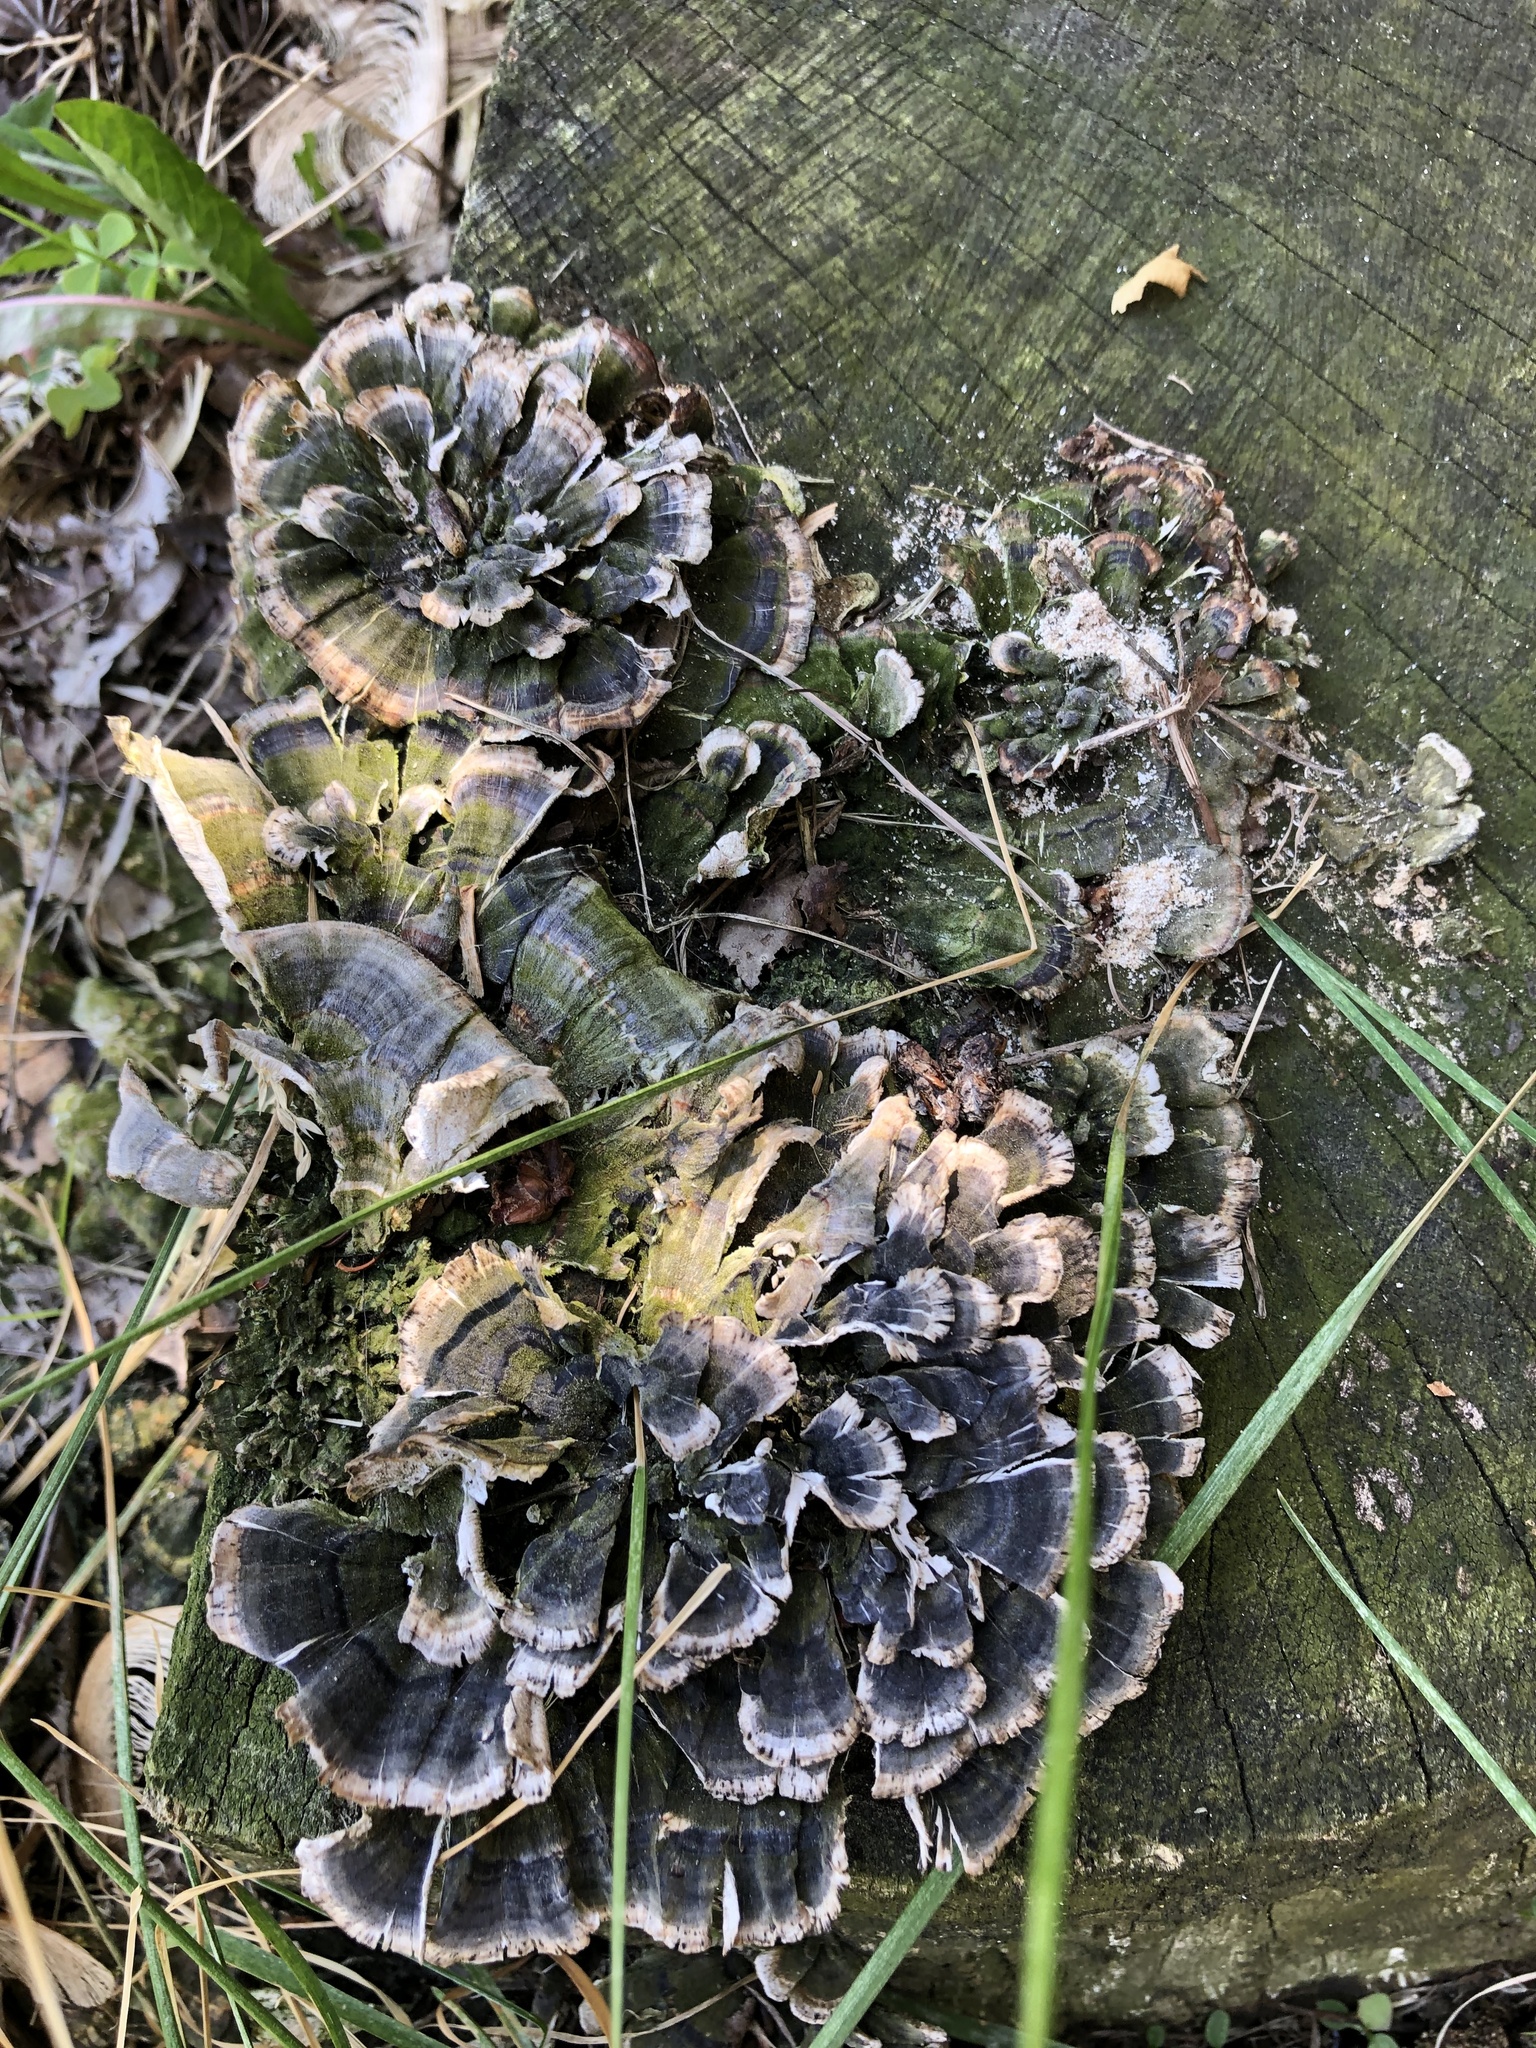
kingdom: Fungi
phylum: Basidiomycota
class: Agaricomycetes
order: Polyporales
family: Polyporaceae
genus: Trametes
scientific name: Trametes versicolor
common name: Turkeytail
